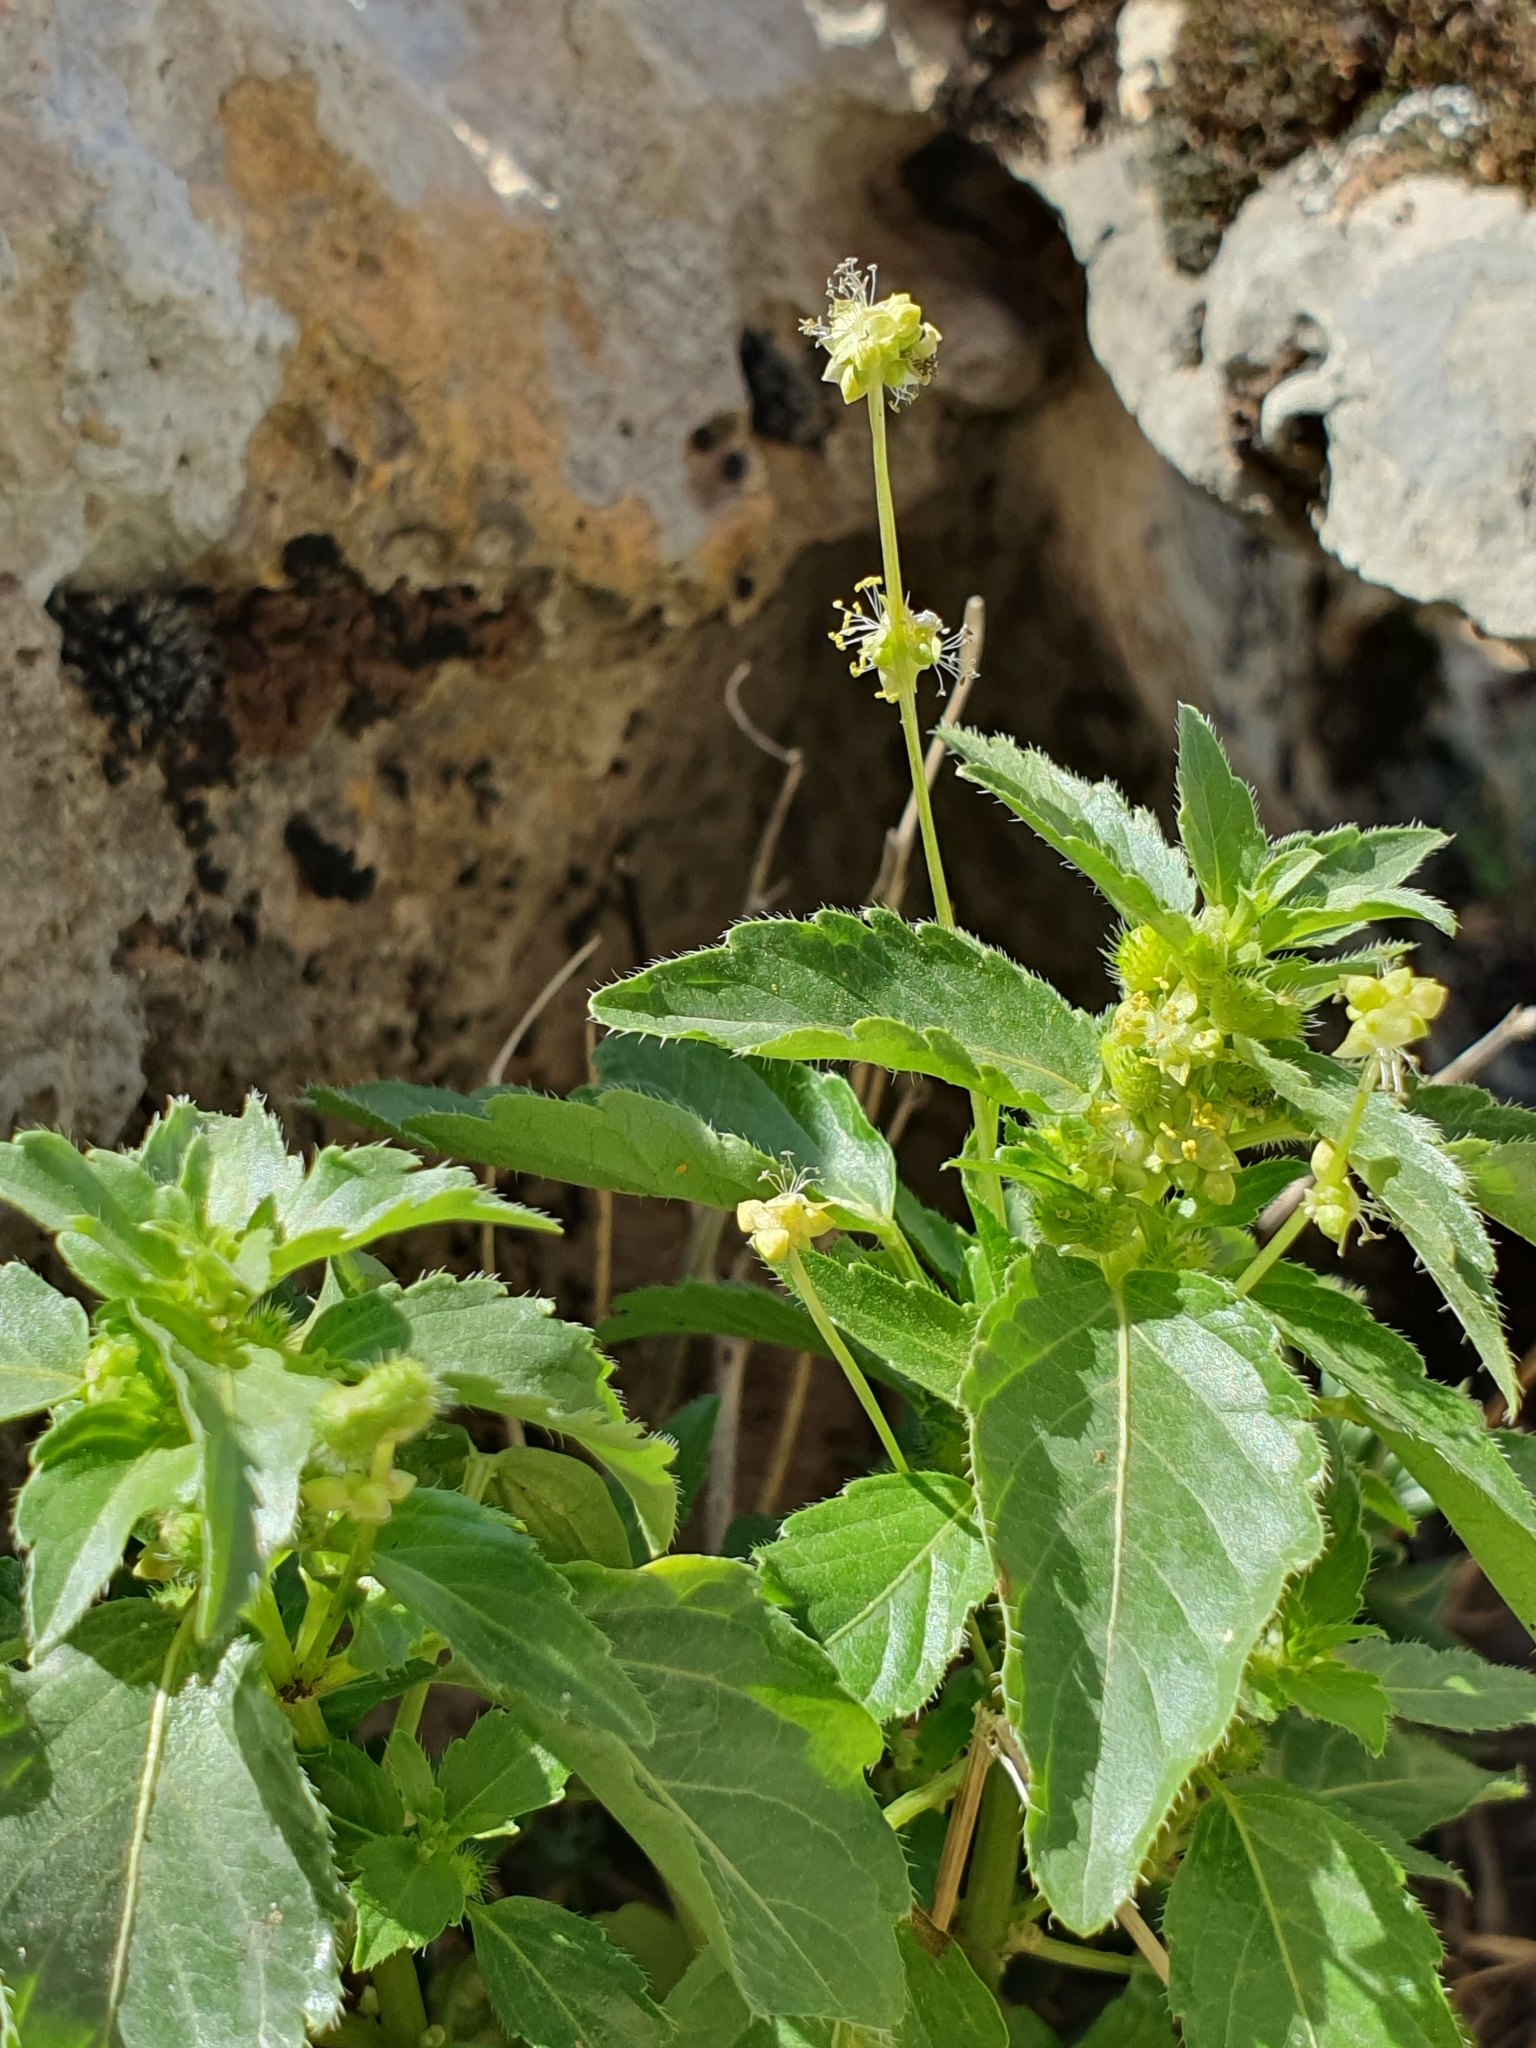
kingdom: Plantae
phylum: Tracheophyta
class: Magnoliopsida
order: Malpighiales
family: Euphorbiaceae
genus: Mercurialis
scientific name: Mercurialis annua
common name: Annual mercury
